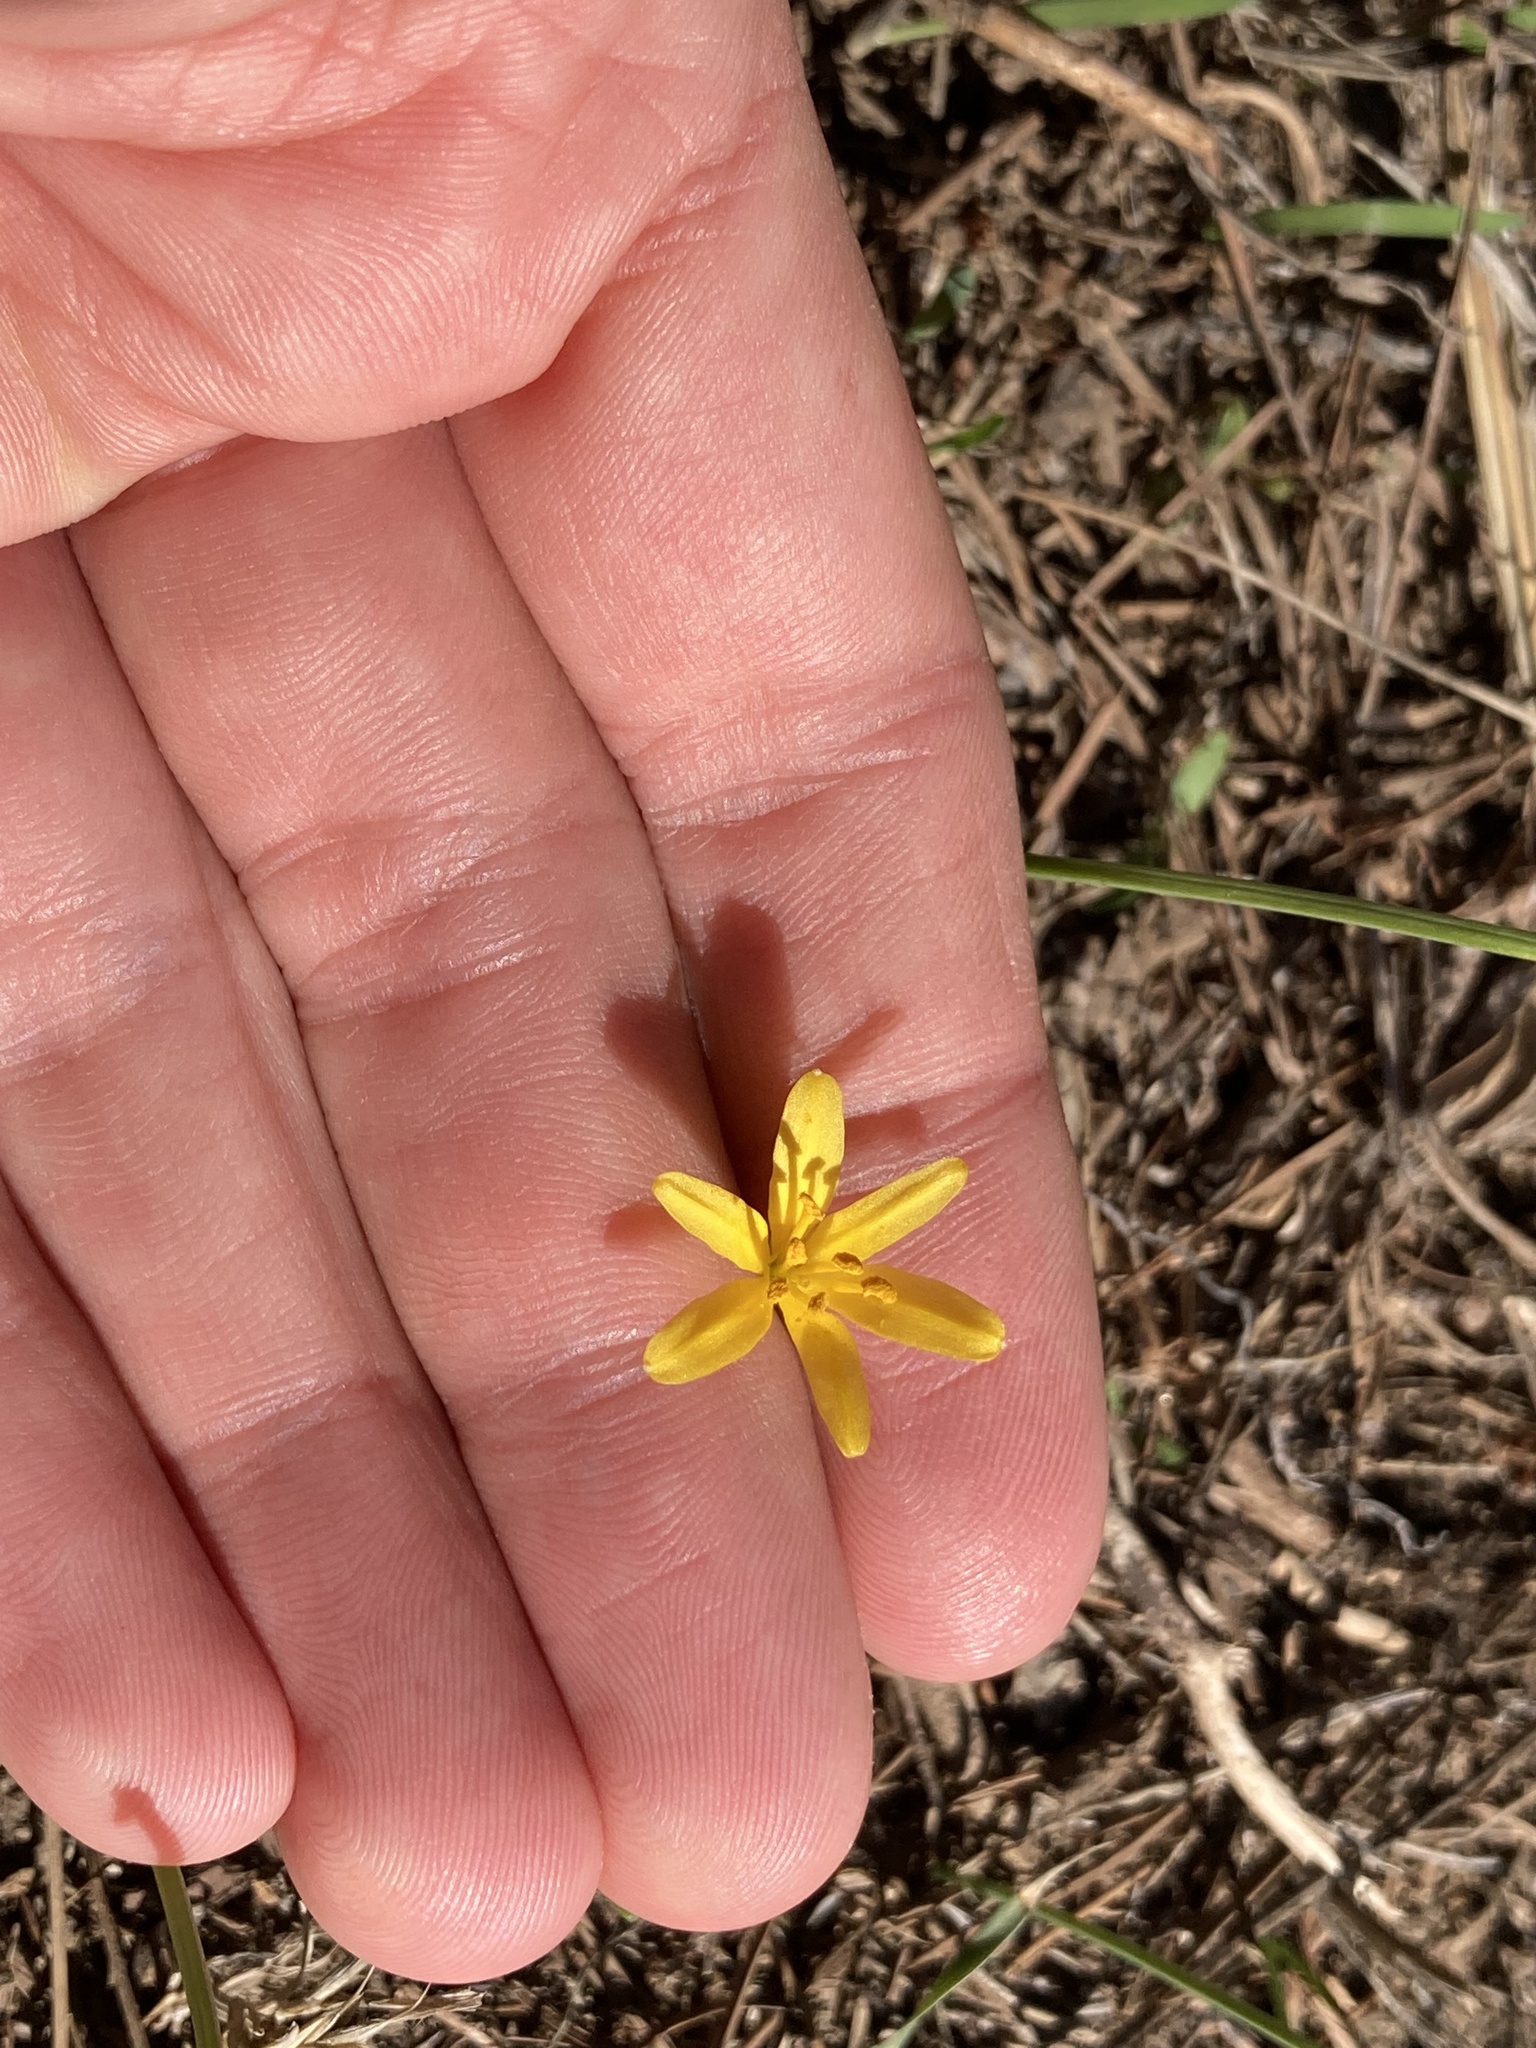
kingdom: Plantae
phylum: Tracheophyta
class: Liliopsida
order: Asparagales
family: Amaryllidaceae
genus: Narcissus
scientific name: Narcissus cavanillesii
